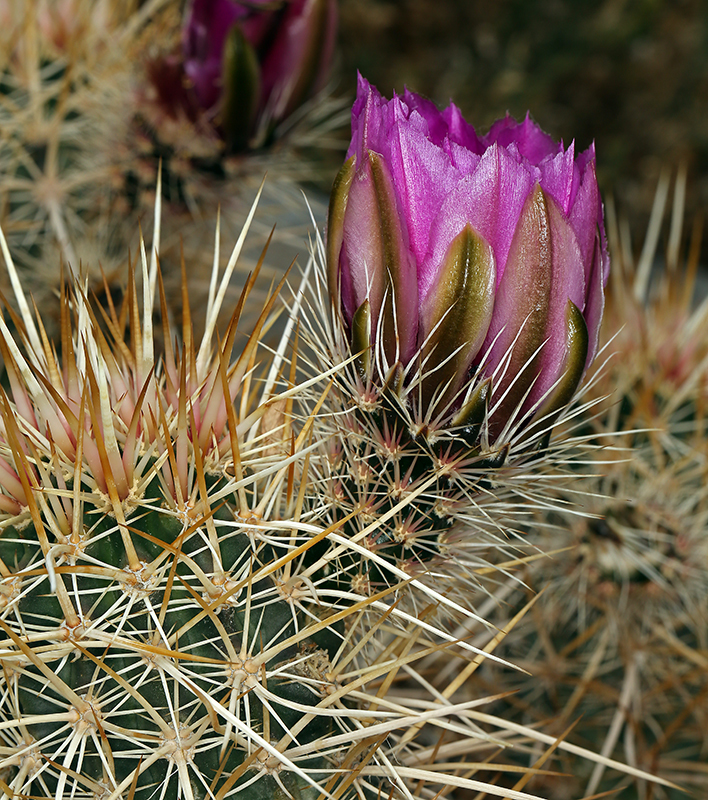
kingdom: Plantae
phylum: Tracheophyta
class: Magnoliopsida
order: Caryophyllales
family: Cactaceae
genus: Echinocereus
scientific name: Echinocereus engelmannii
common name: Engelmann's hedgehog cactus
